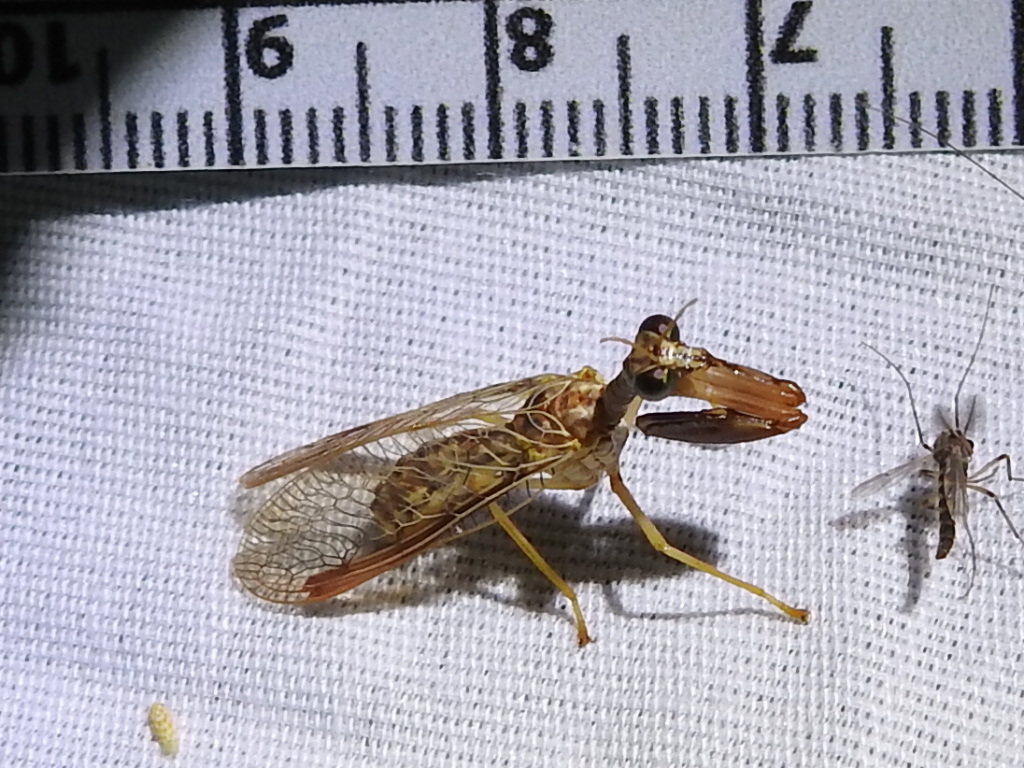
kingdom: Animalia
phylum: Arthropoda
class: Insecta
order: Neuroptera
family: Mantispidae
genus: Dicromantispa
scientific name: Dicromantispa sayi
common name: Say's mantidfly
